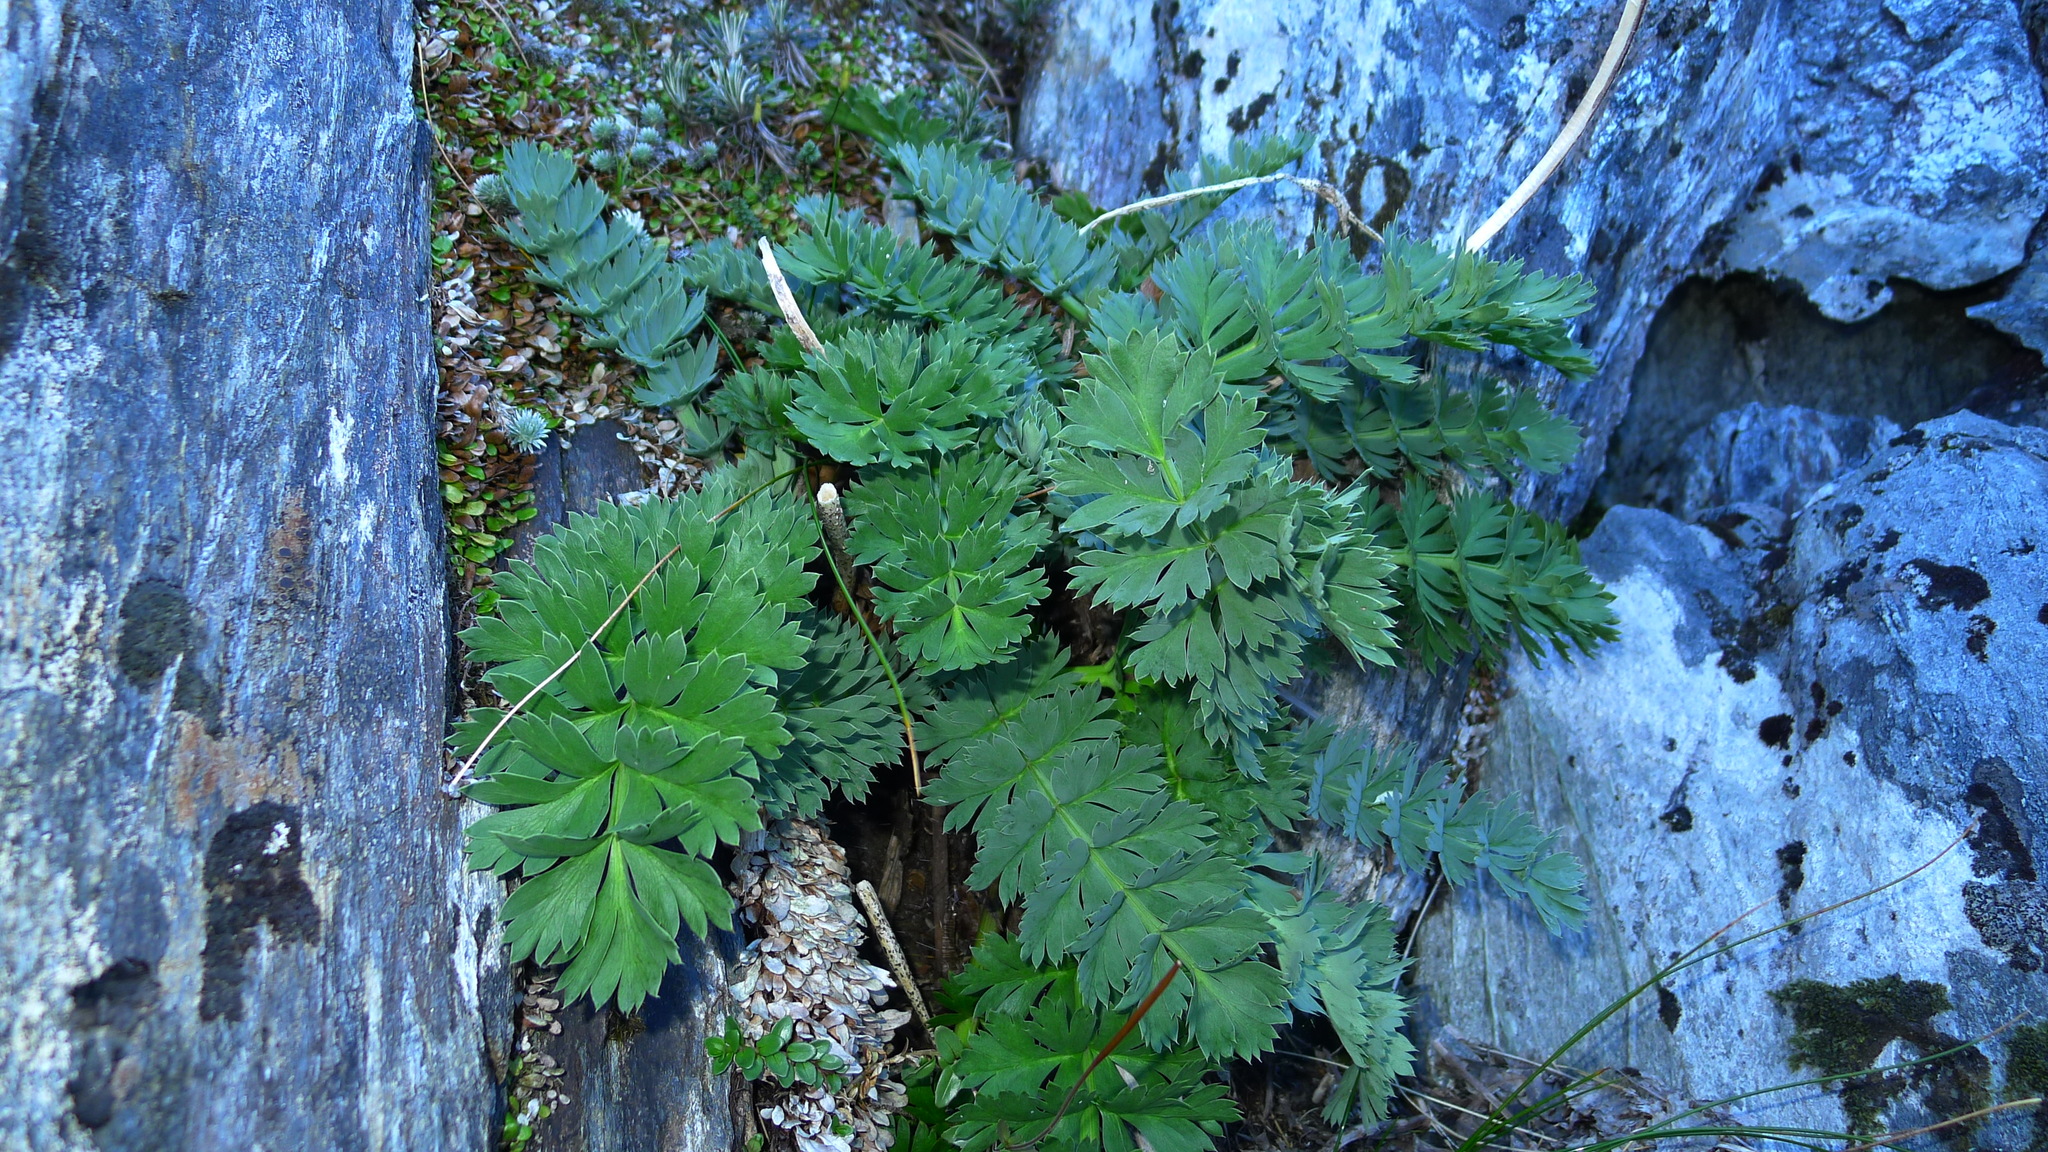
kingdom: Plantae
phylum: Tracheophyta
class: Magnoliopsida
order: Apiales
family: Apiaceae
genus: Anisotome
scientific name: Anisotome pilifera
